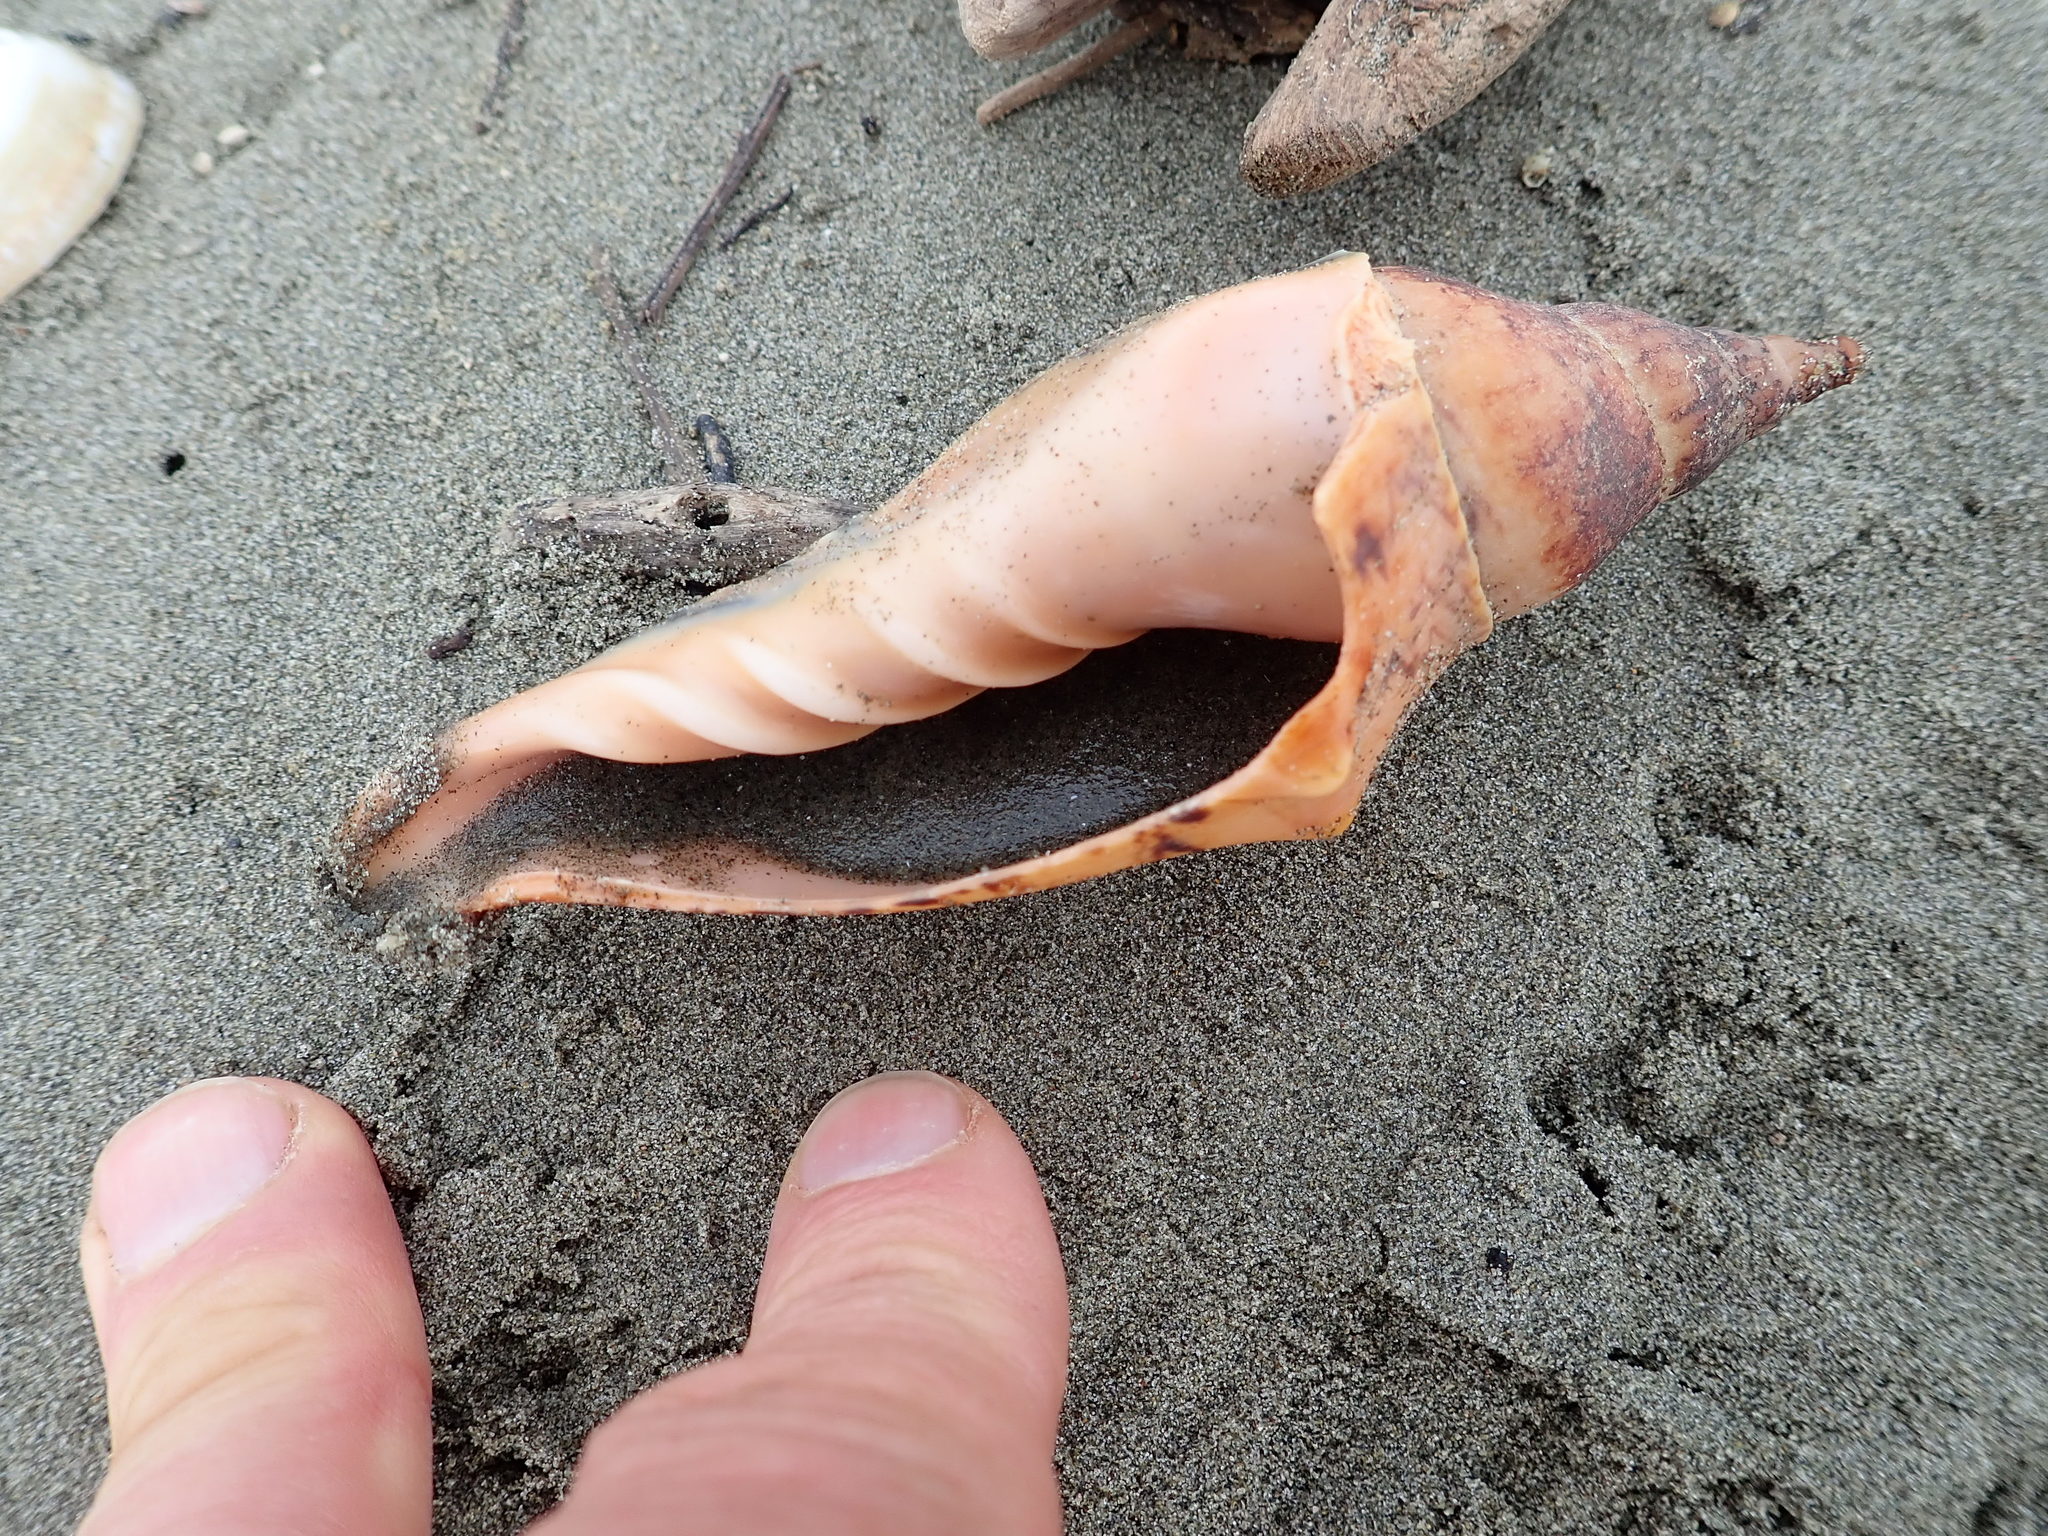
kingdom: Animalia
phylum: Mollusca
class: Gastropoda
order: Neogastropoda
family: Volutidae
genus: Alcithoe
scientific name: Alcithoe arabica
